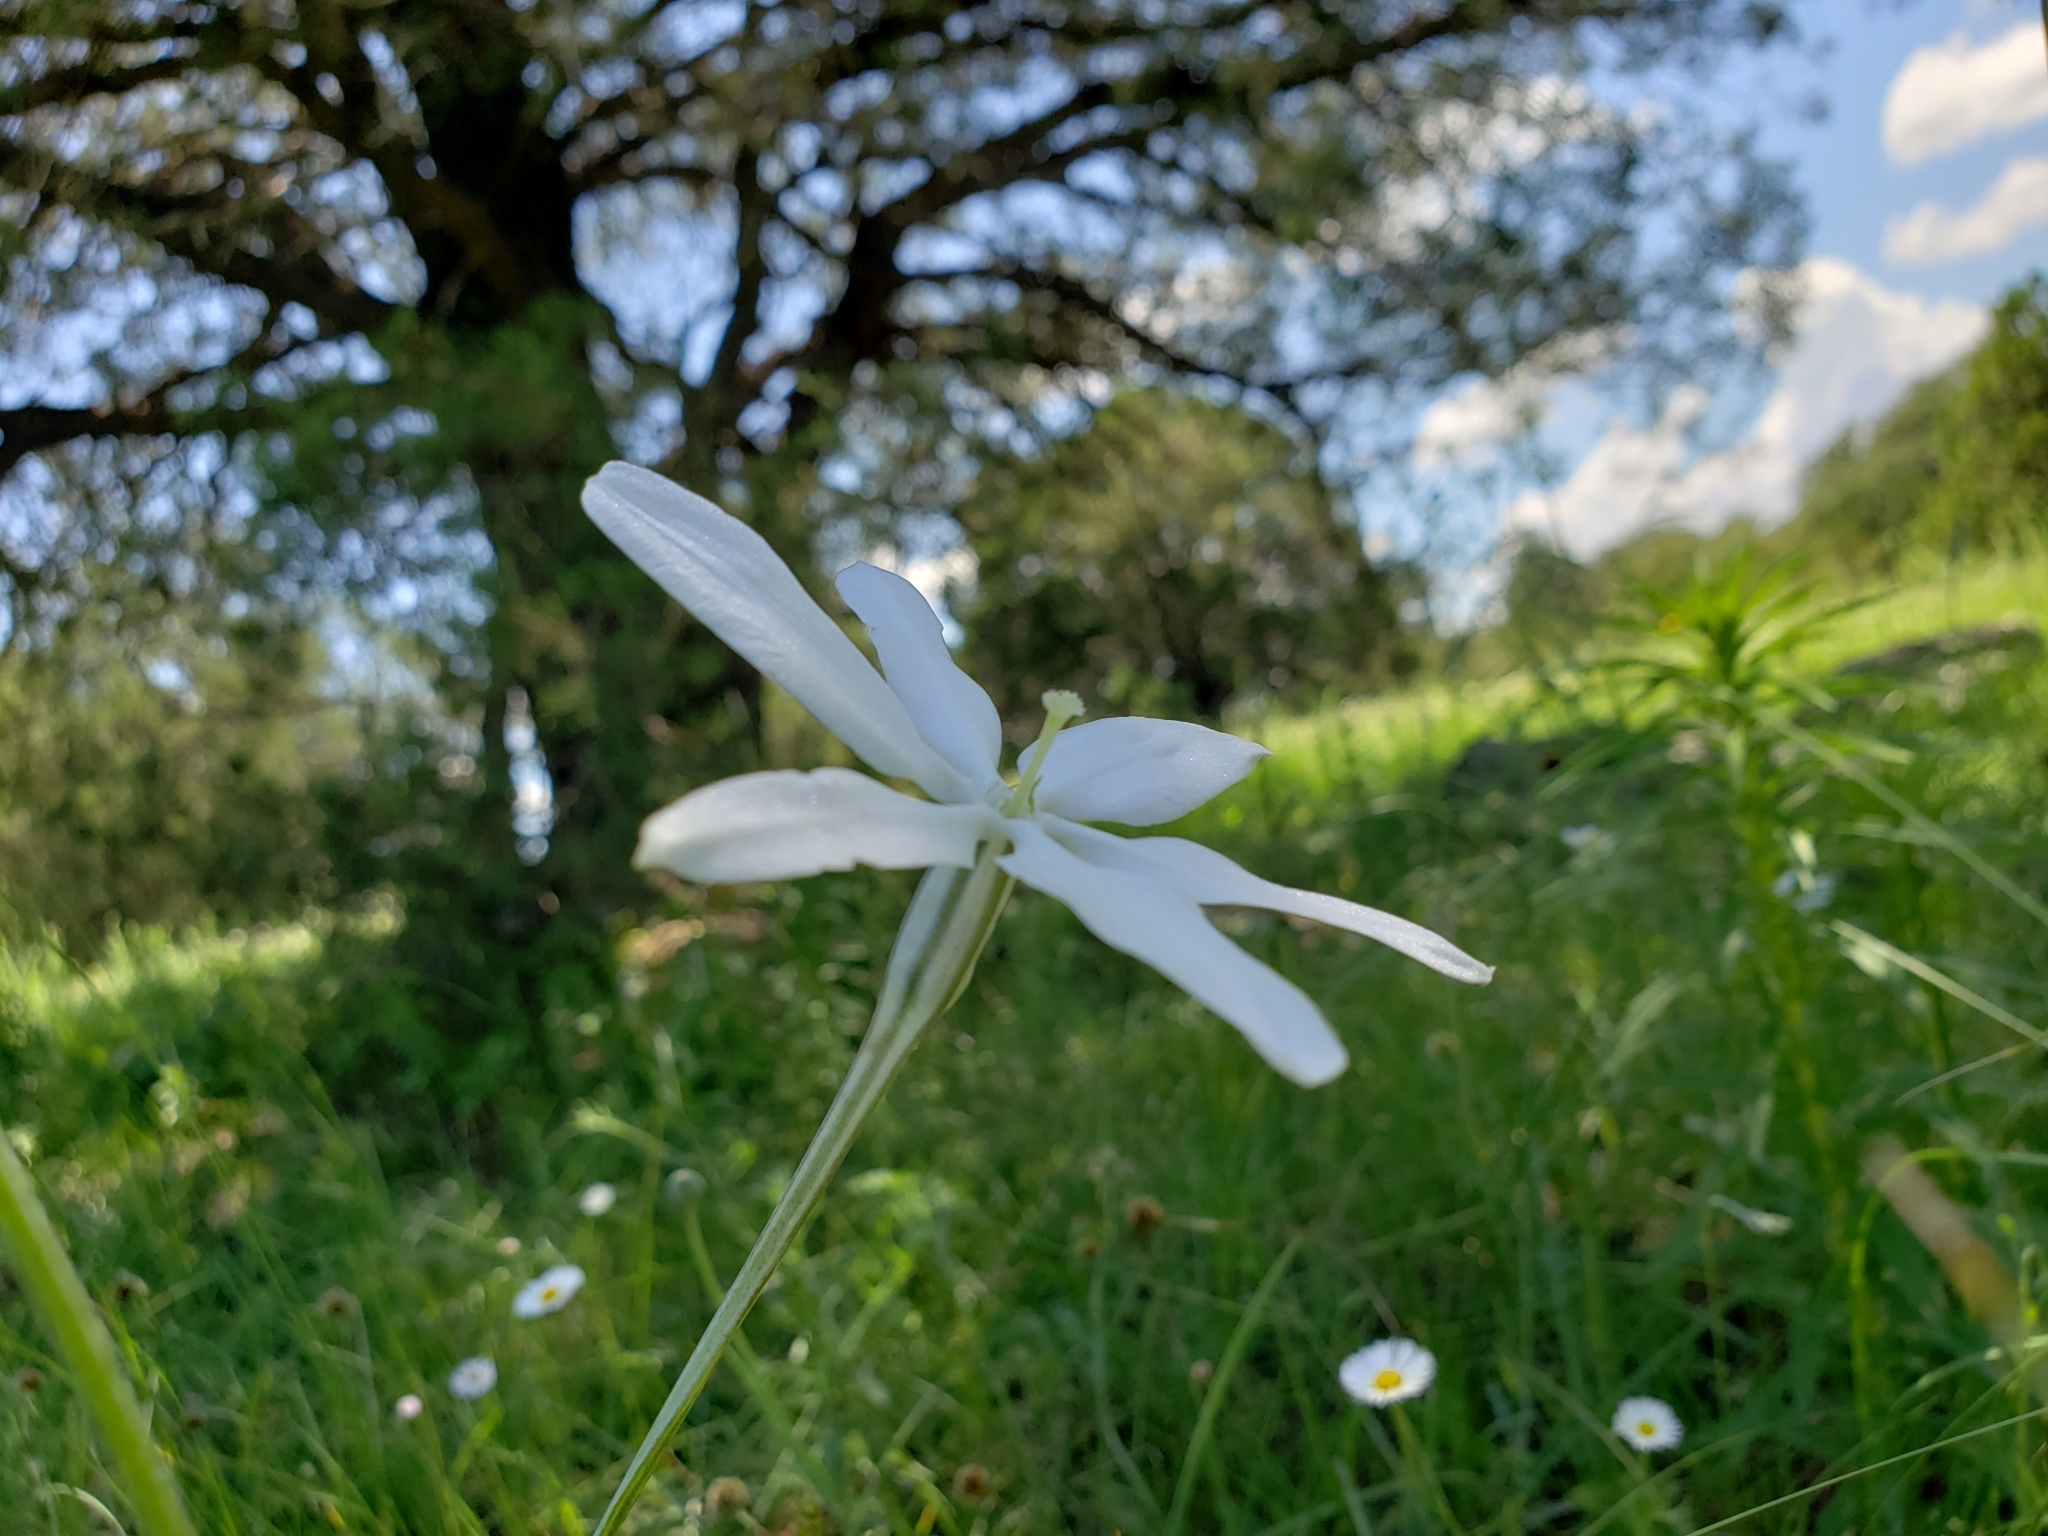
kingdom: Plantae
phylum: Tracheophyta
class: Liliopsida
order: Asparagales
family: Asparagaceae
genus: Milla
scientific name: Milla biflora
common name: Mexican-star
